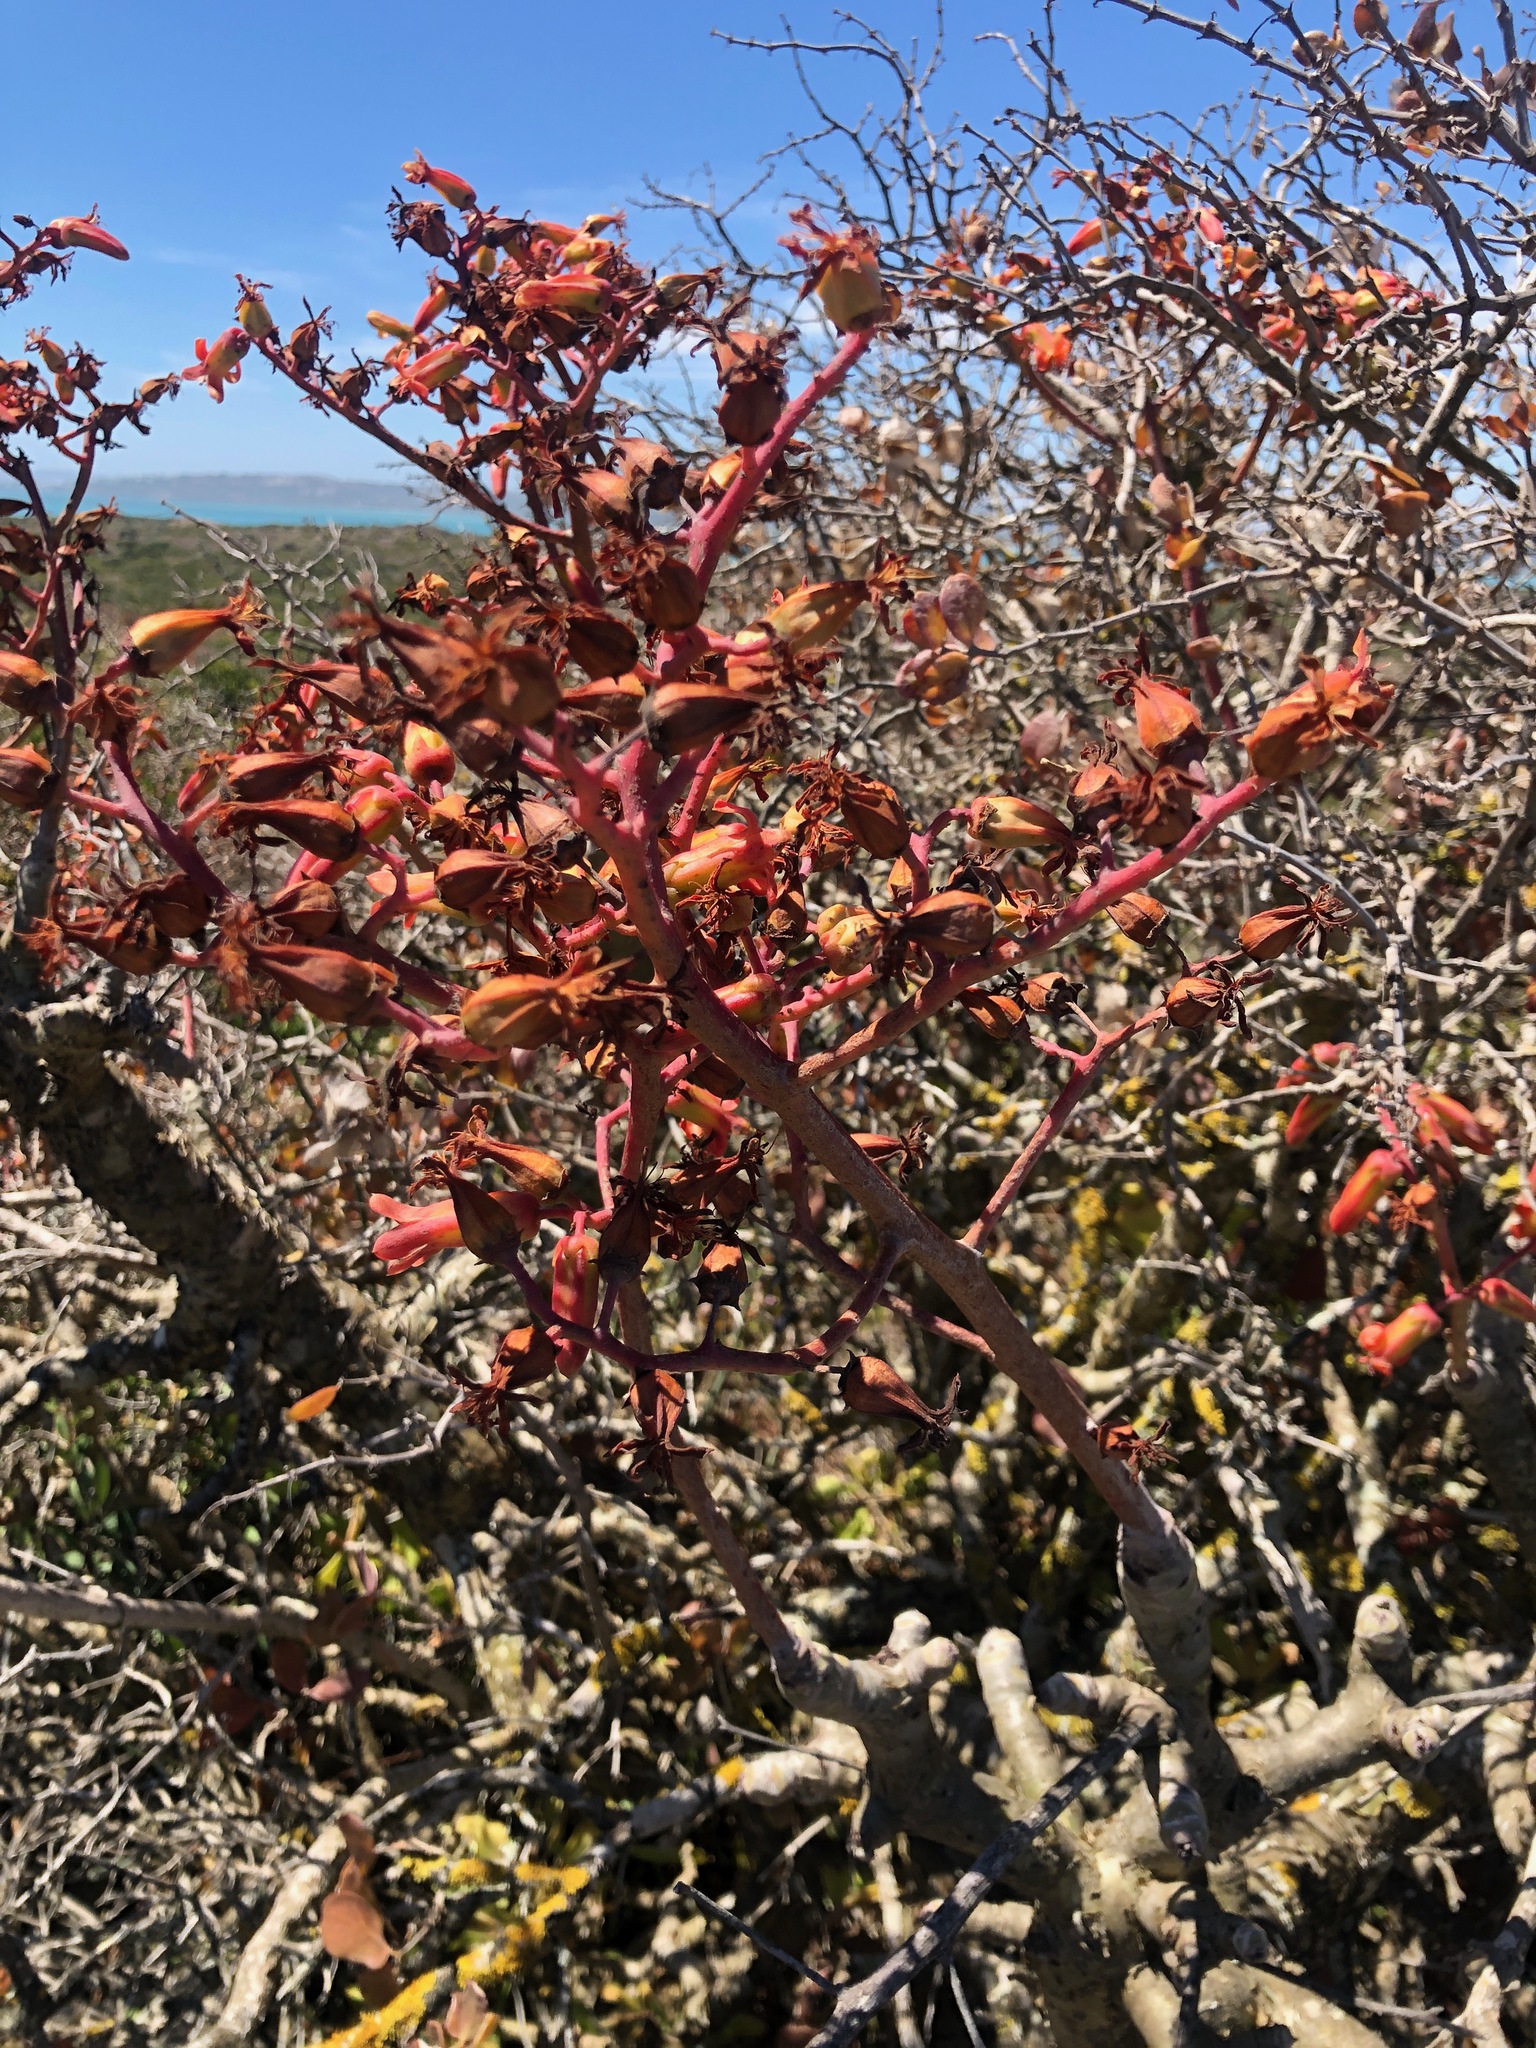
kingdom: Plantae
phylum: Tracheophyta
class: Magnoliopsida
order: Saxifragales
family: Crassulaceae
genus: Tylecodon
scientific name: Tylecodon paniculatus
